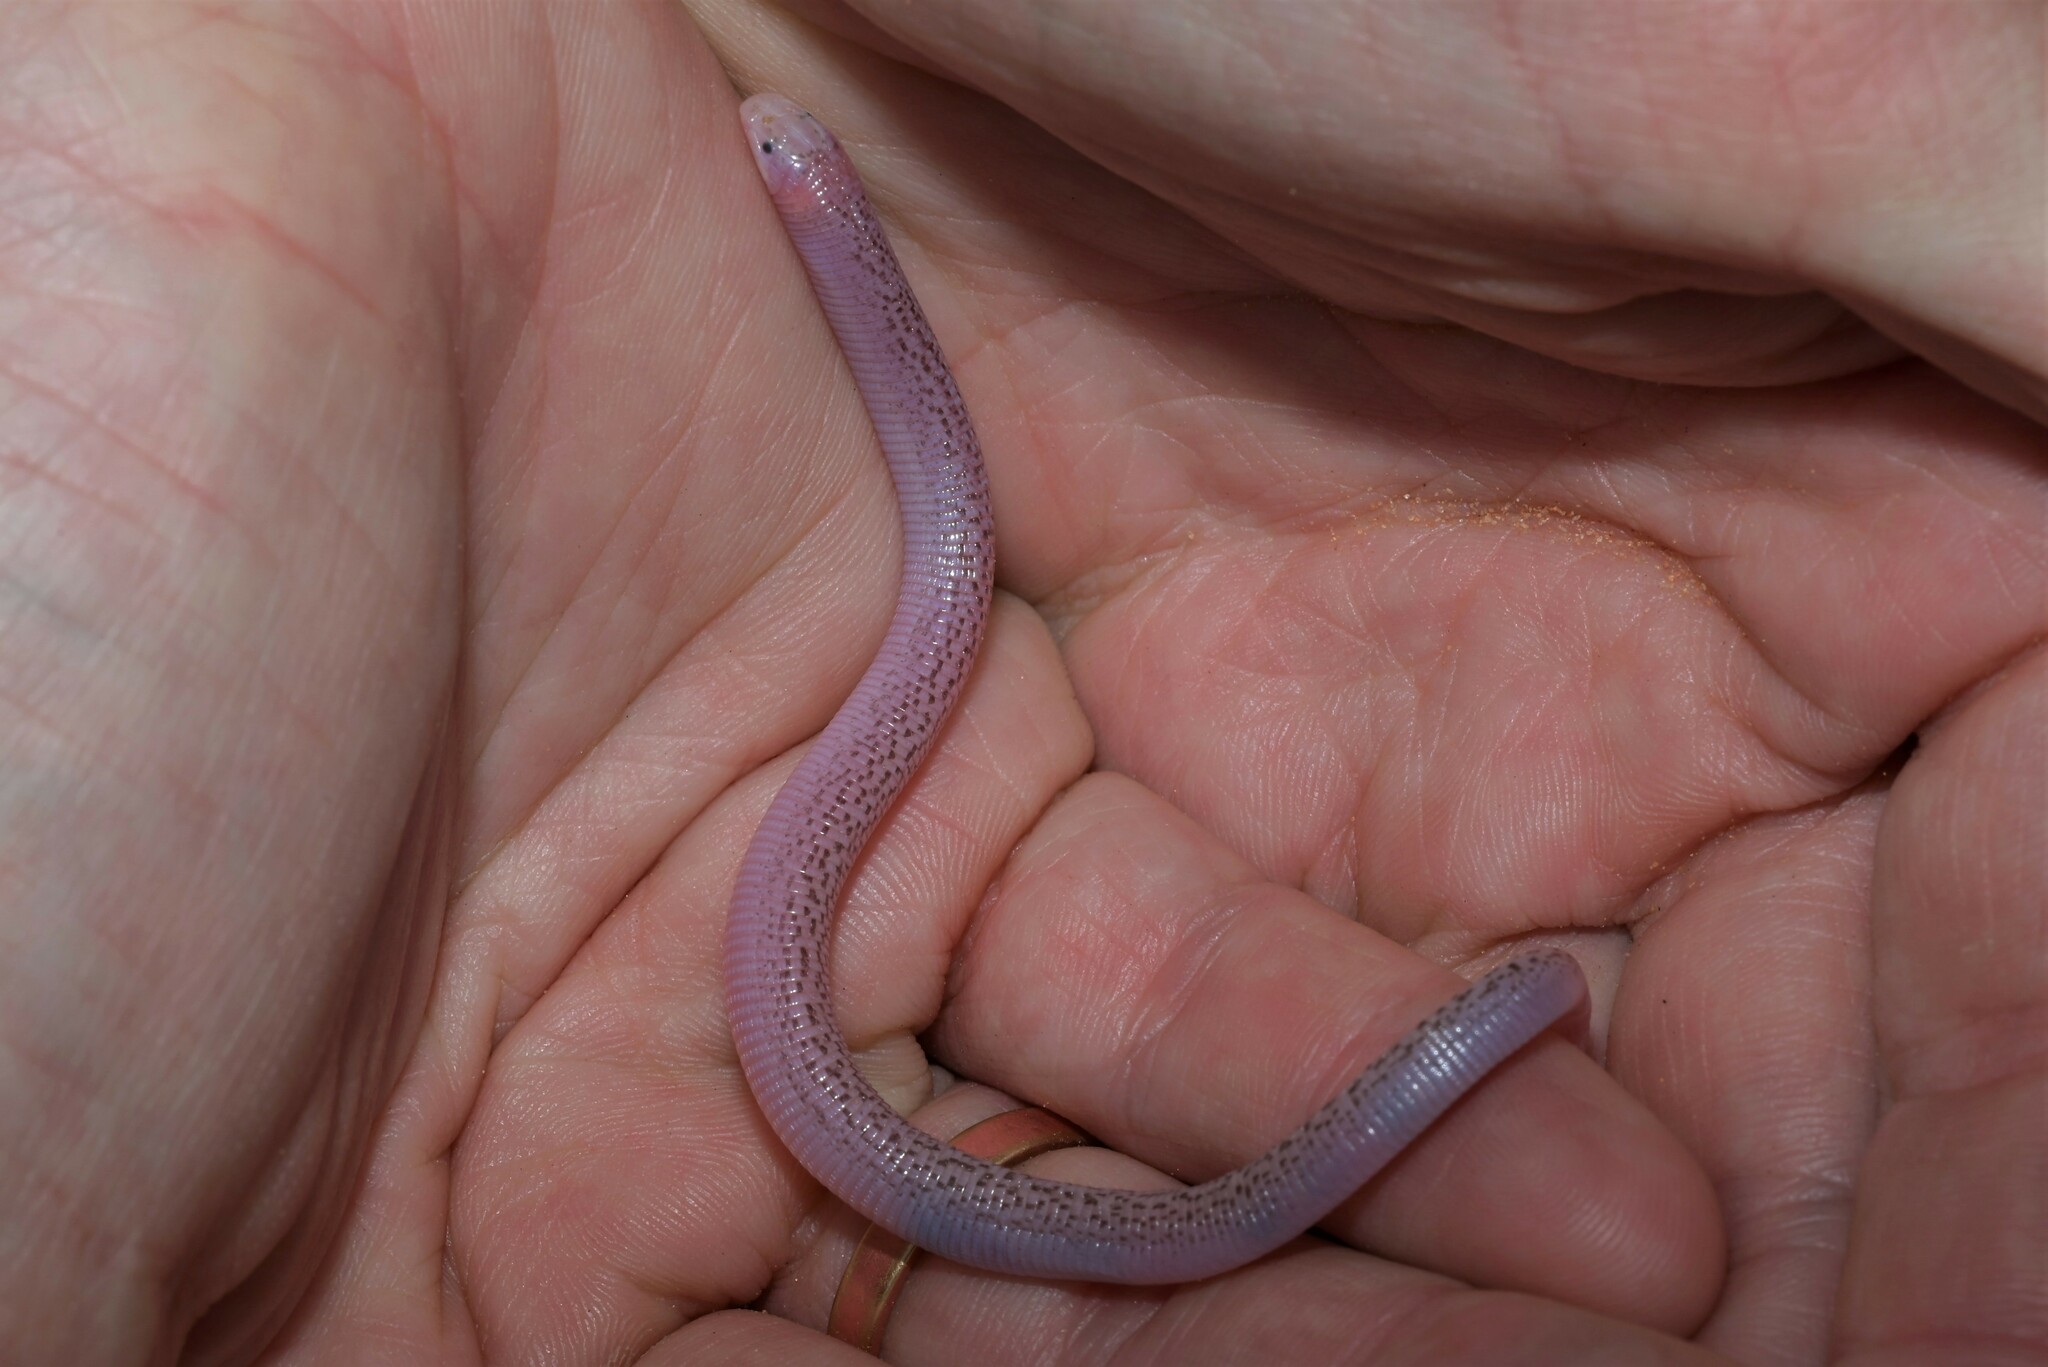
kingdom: Animalia
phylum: Chordata
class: Squamata
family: Trogonophidae
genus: Diplometopon
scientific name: Diplometopon zarudnyi
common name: Zarudnyi's worm lizard
